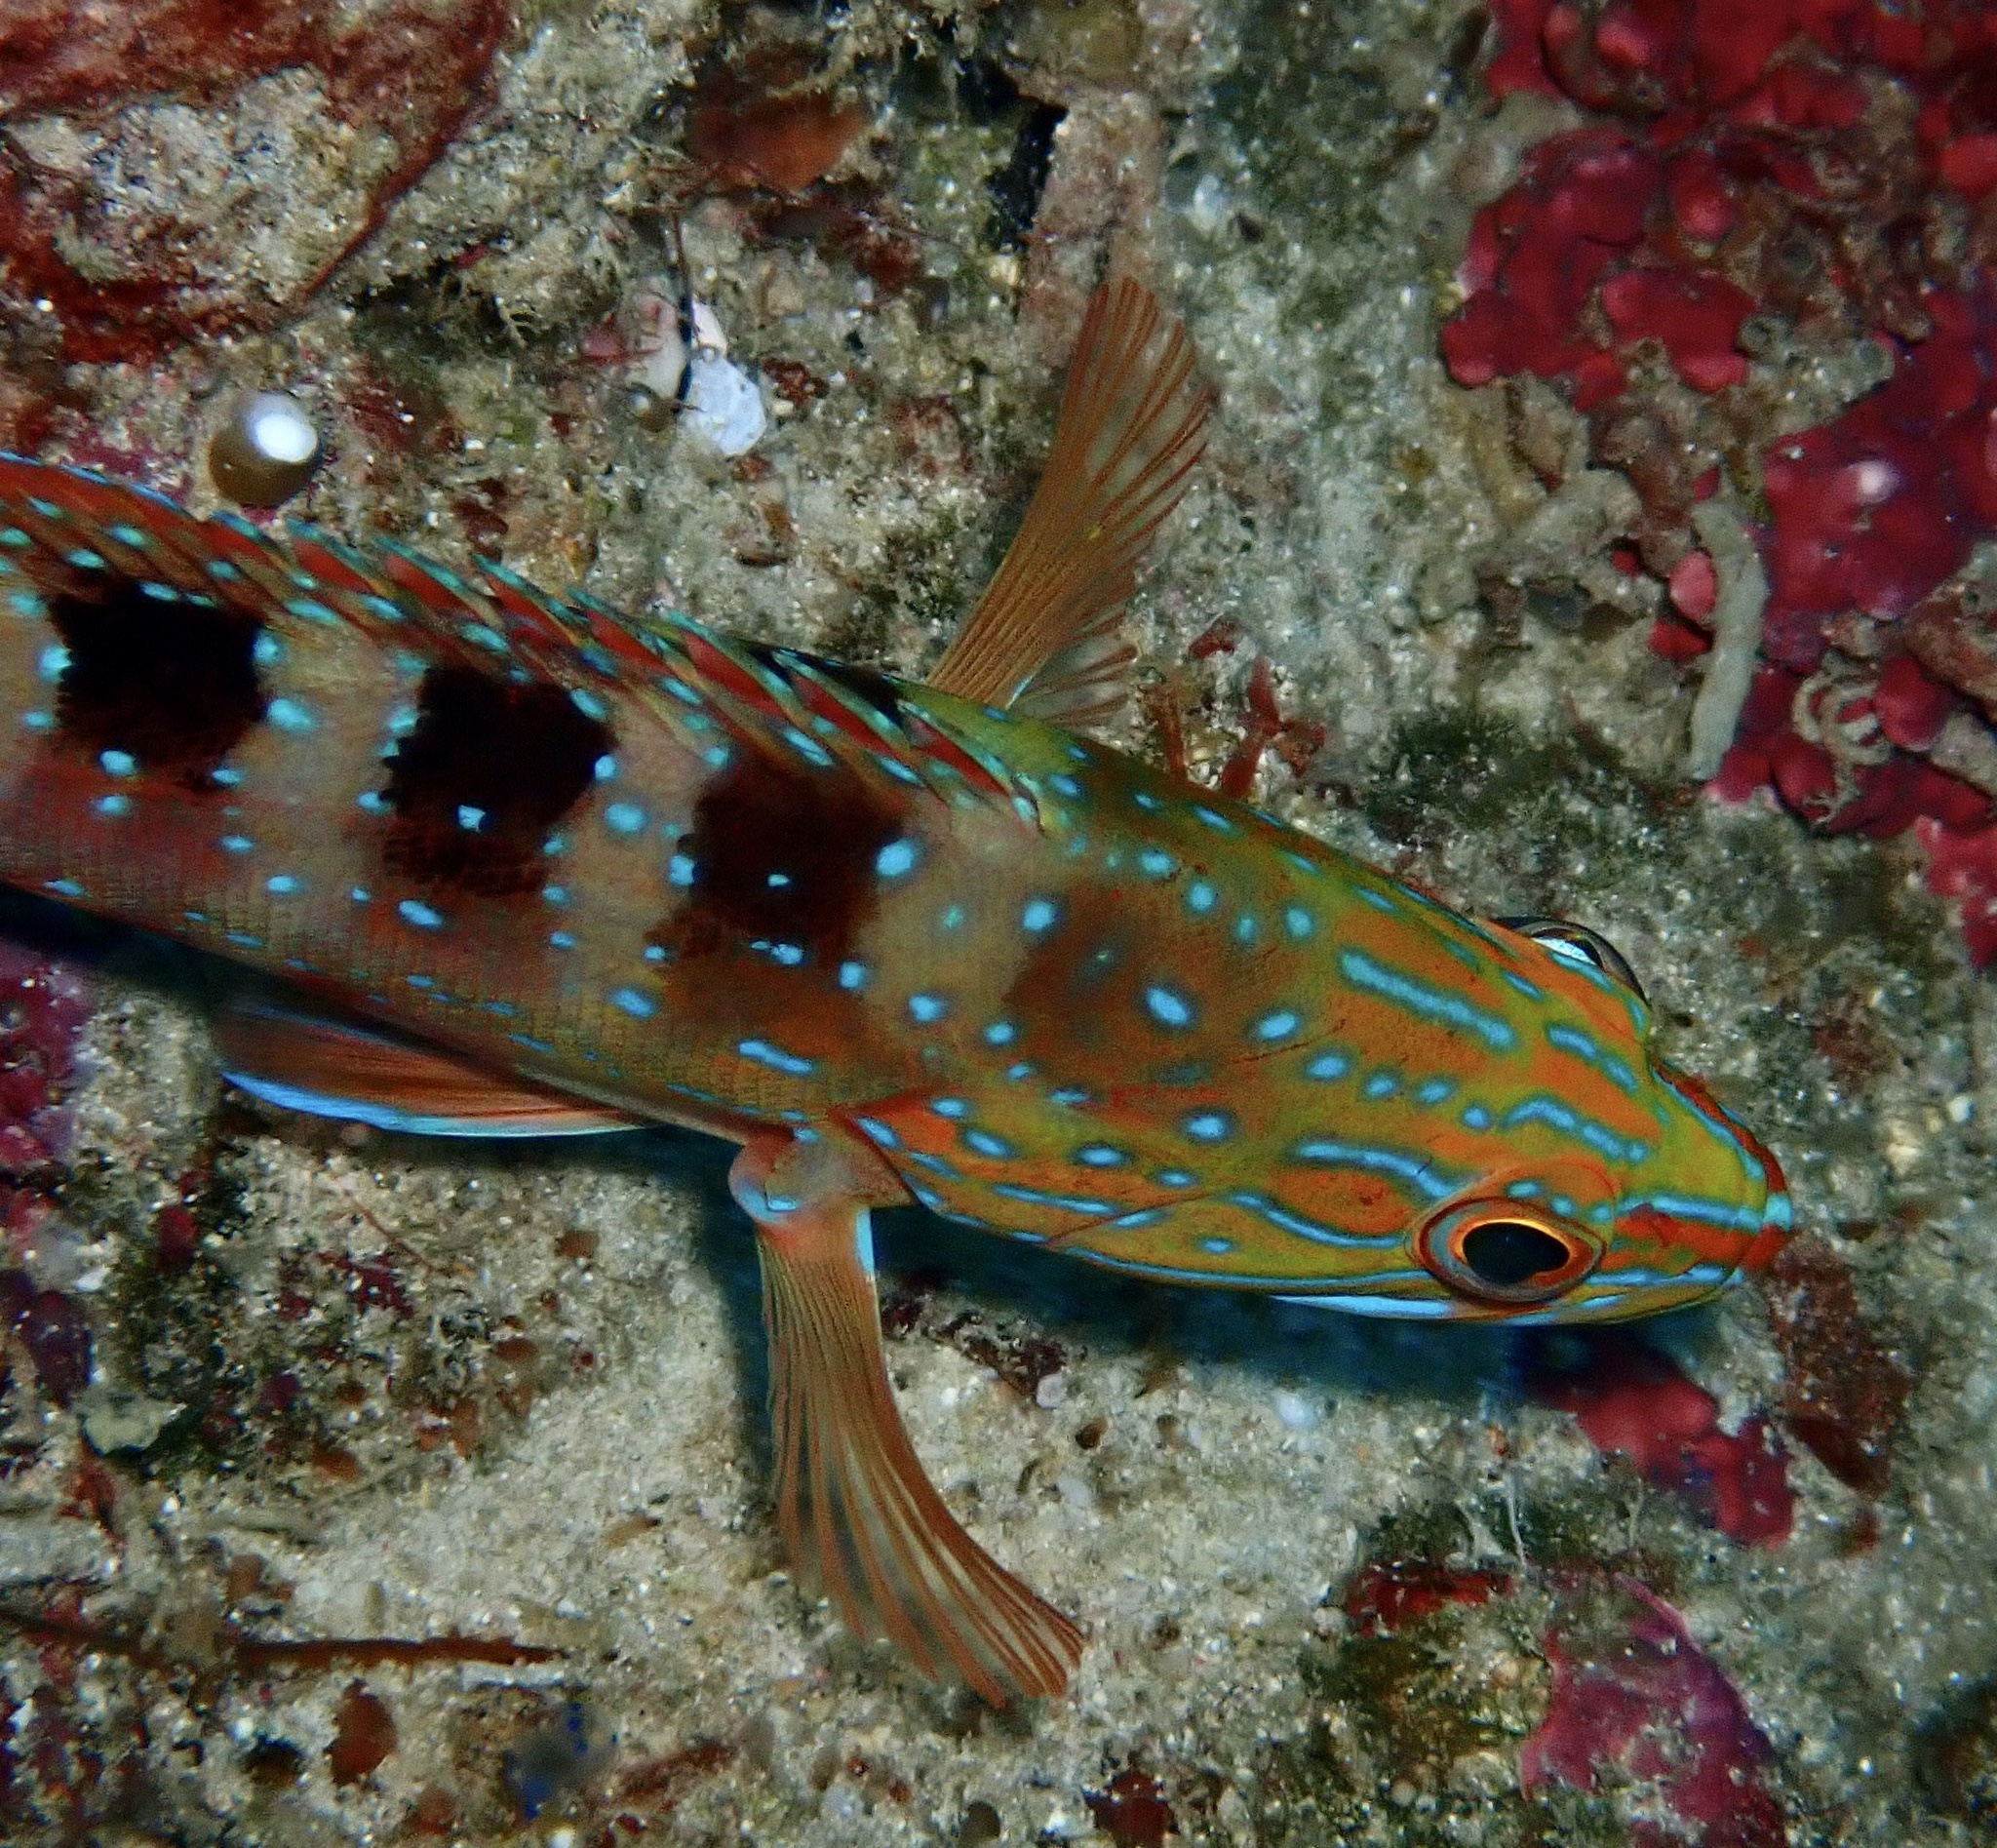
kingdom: Animalia
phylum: Chordata
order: Perciformes
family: Serranidae
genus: Cephalopholis
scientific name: Cephalopholis sexmaculata
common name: Sixblotch hind
